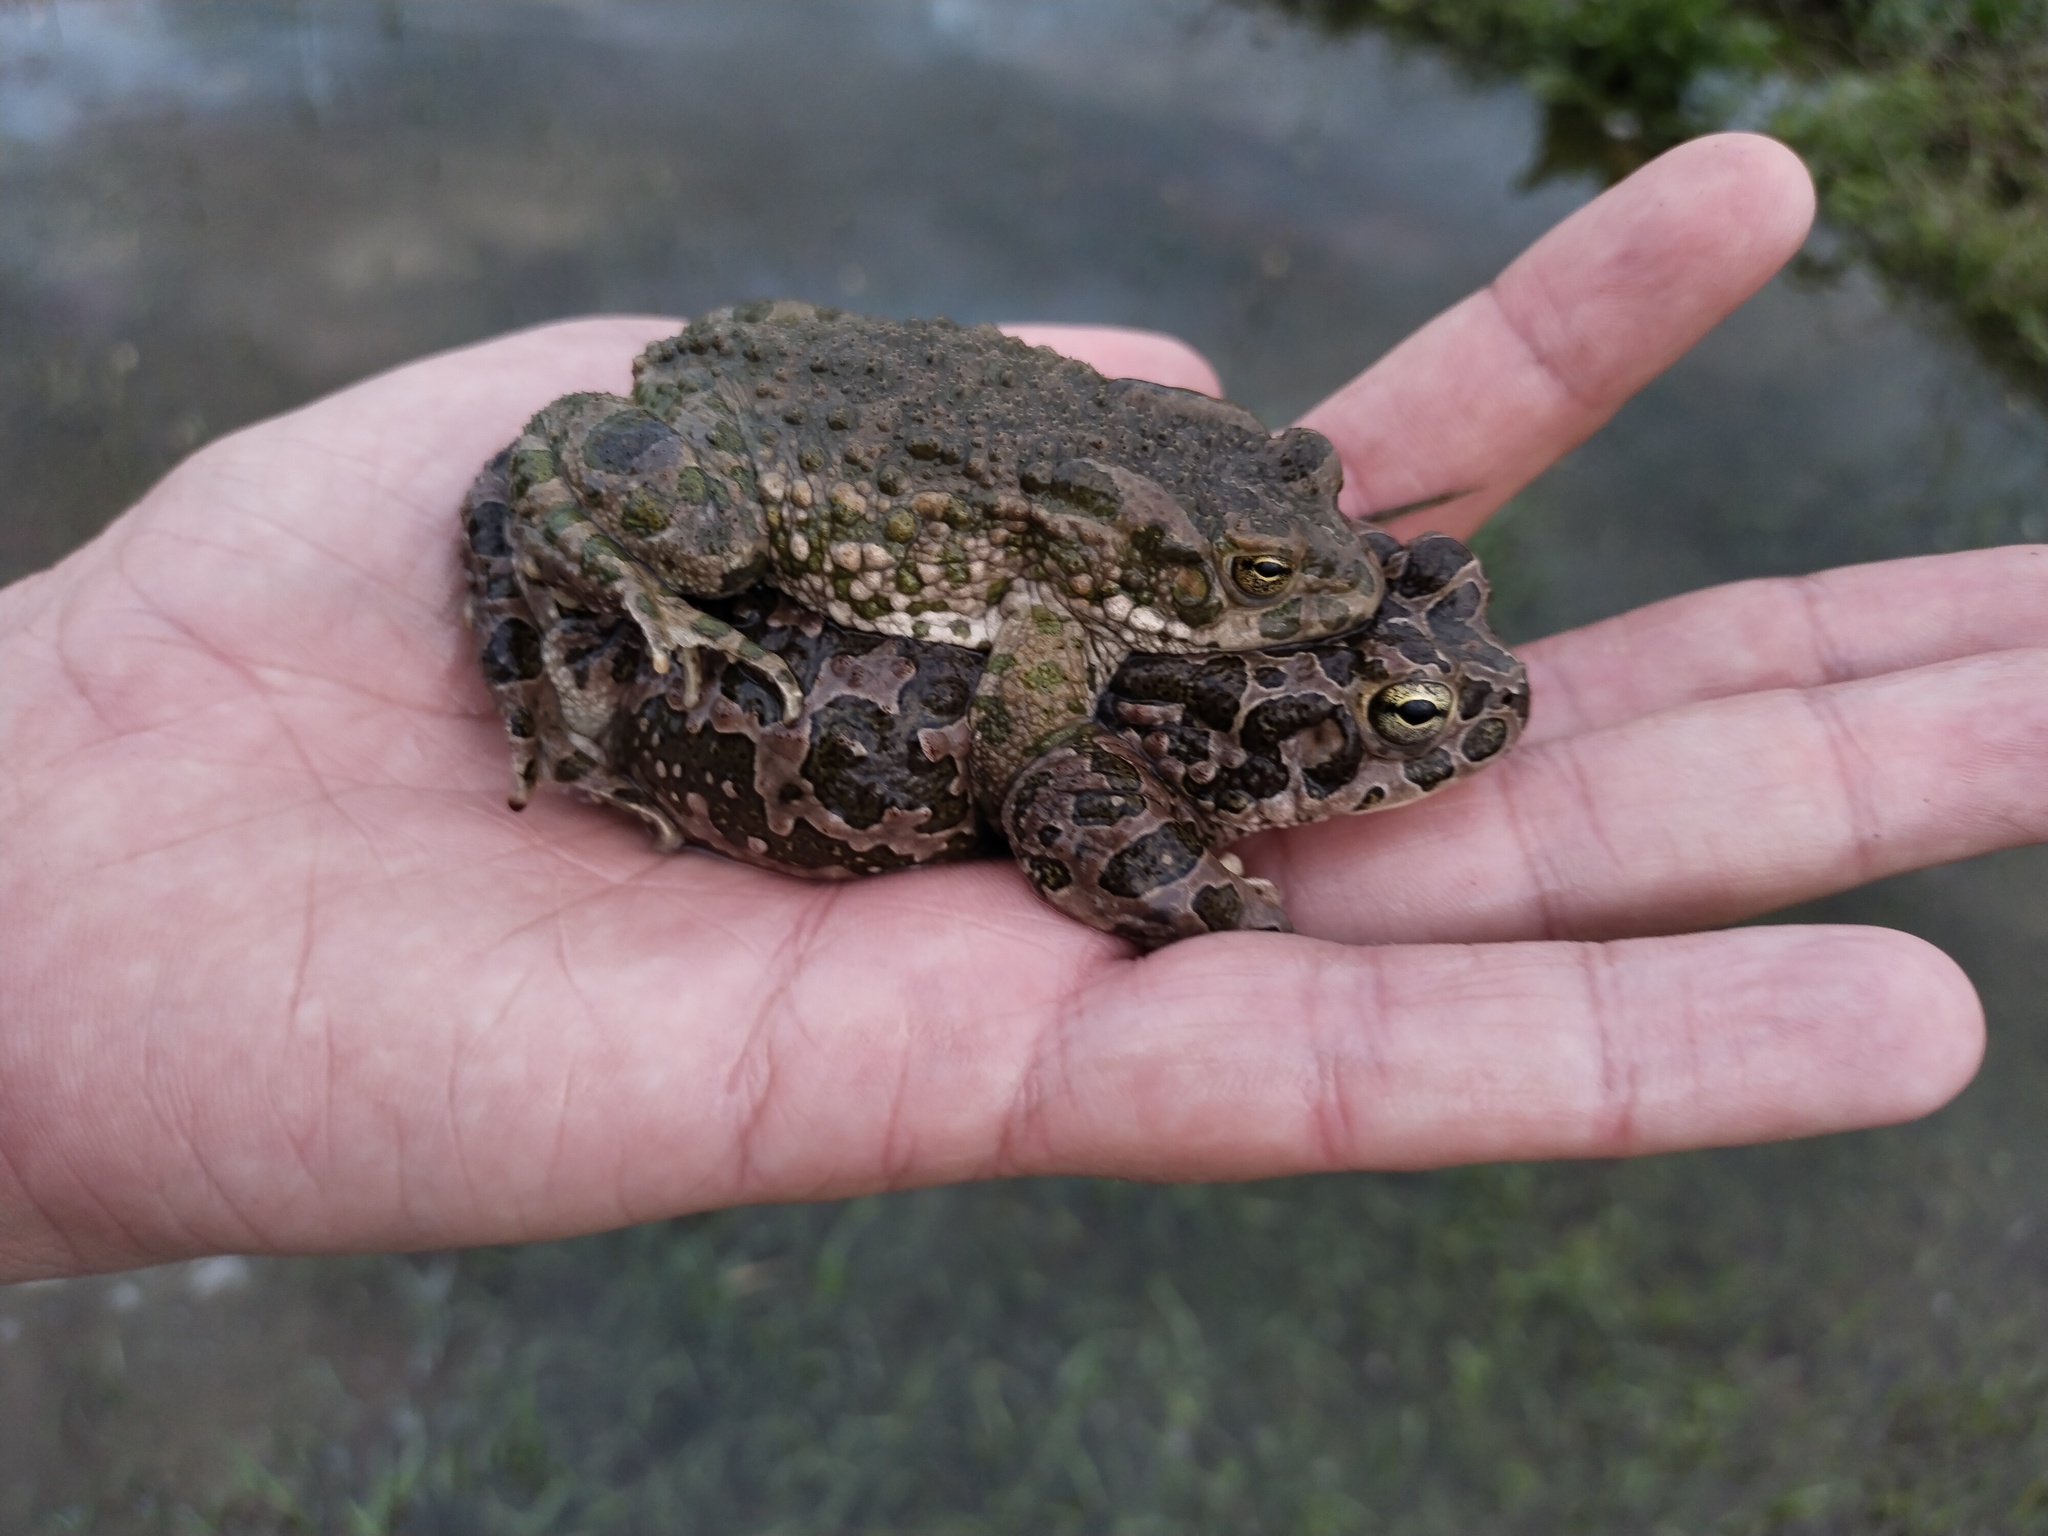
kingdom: Animalia
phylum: Chordata
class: Amphibia
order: Anura
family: Bufonidae
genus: Bufotes
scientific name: Bufotes viridis
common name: European green toad
